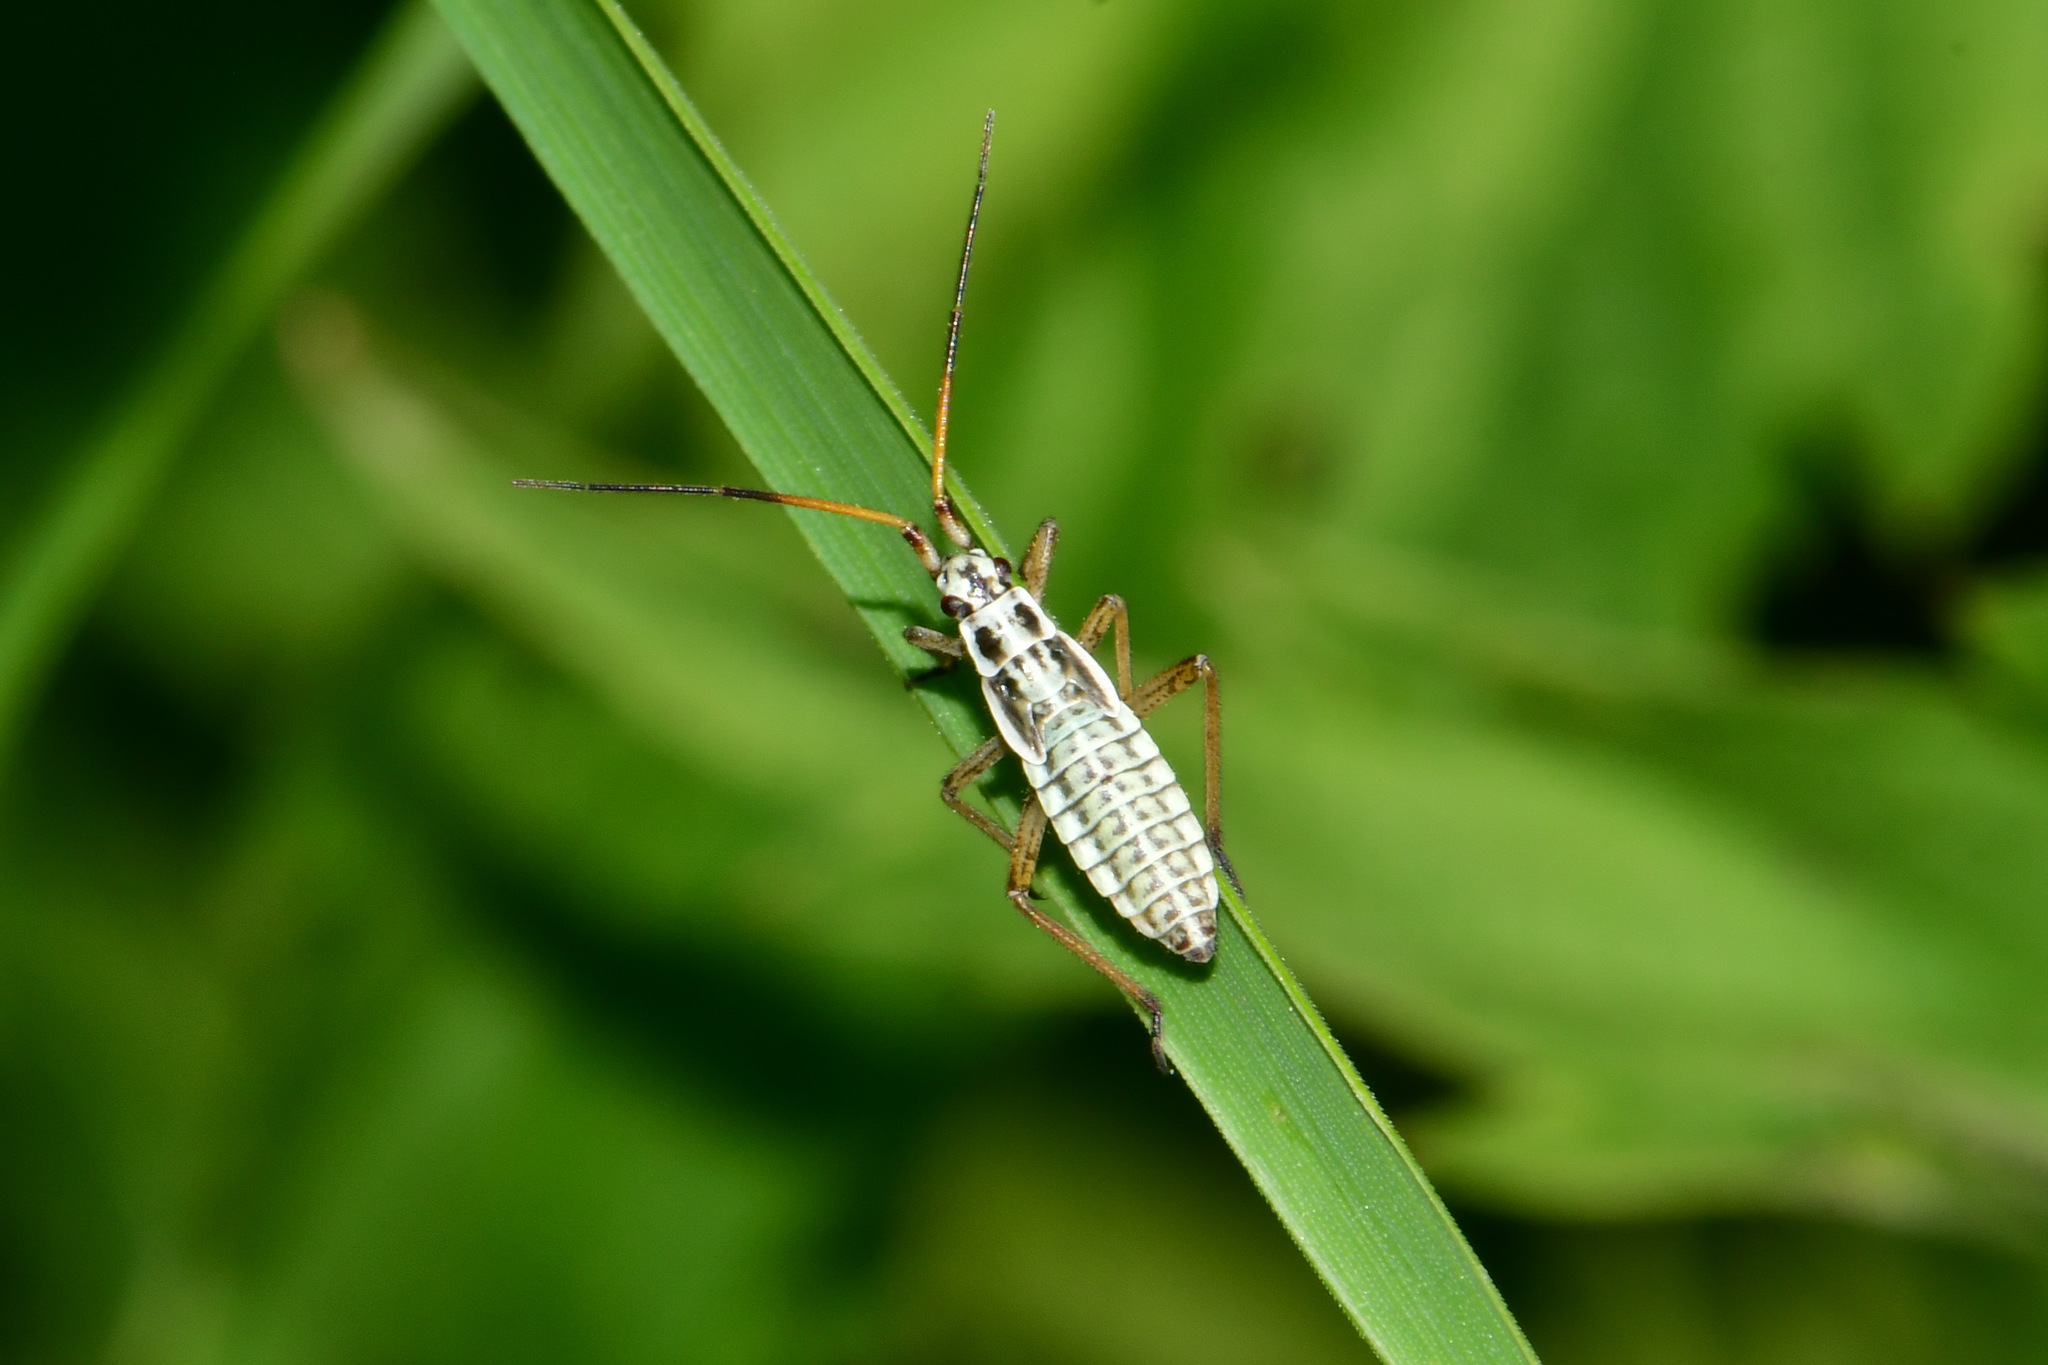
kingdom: Animalia
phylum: Arthropoda
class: Insecta
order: Hemiptera
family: Miridae
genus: Leptopterna
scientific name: Leptopterna dolabrata
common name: Meadow plant bug
